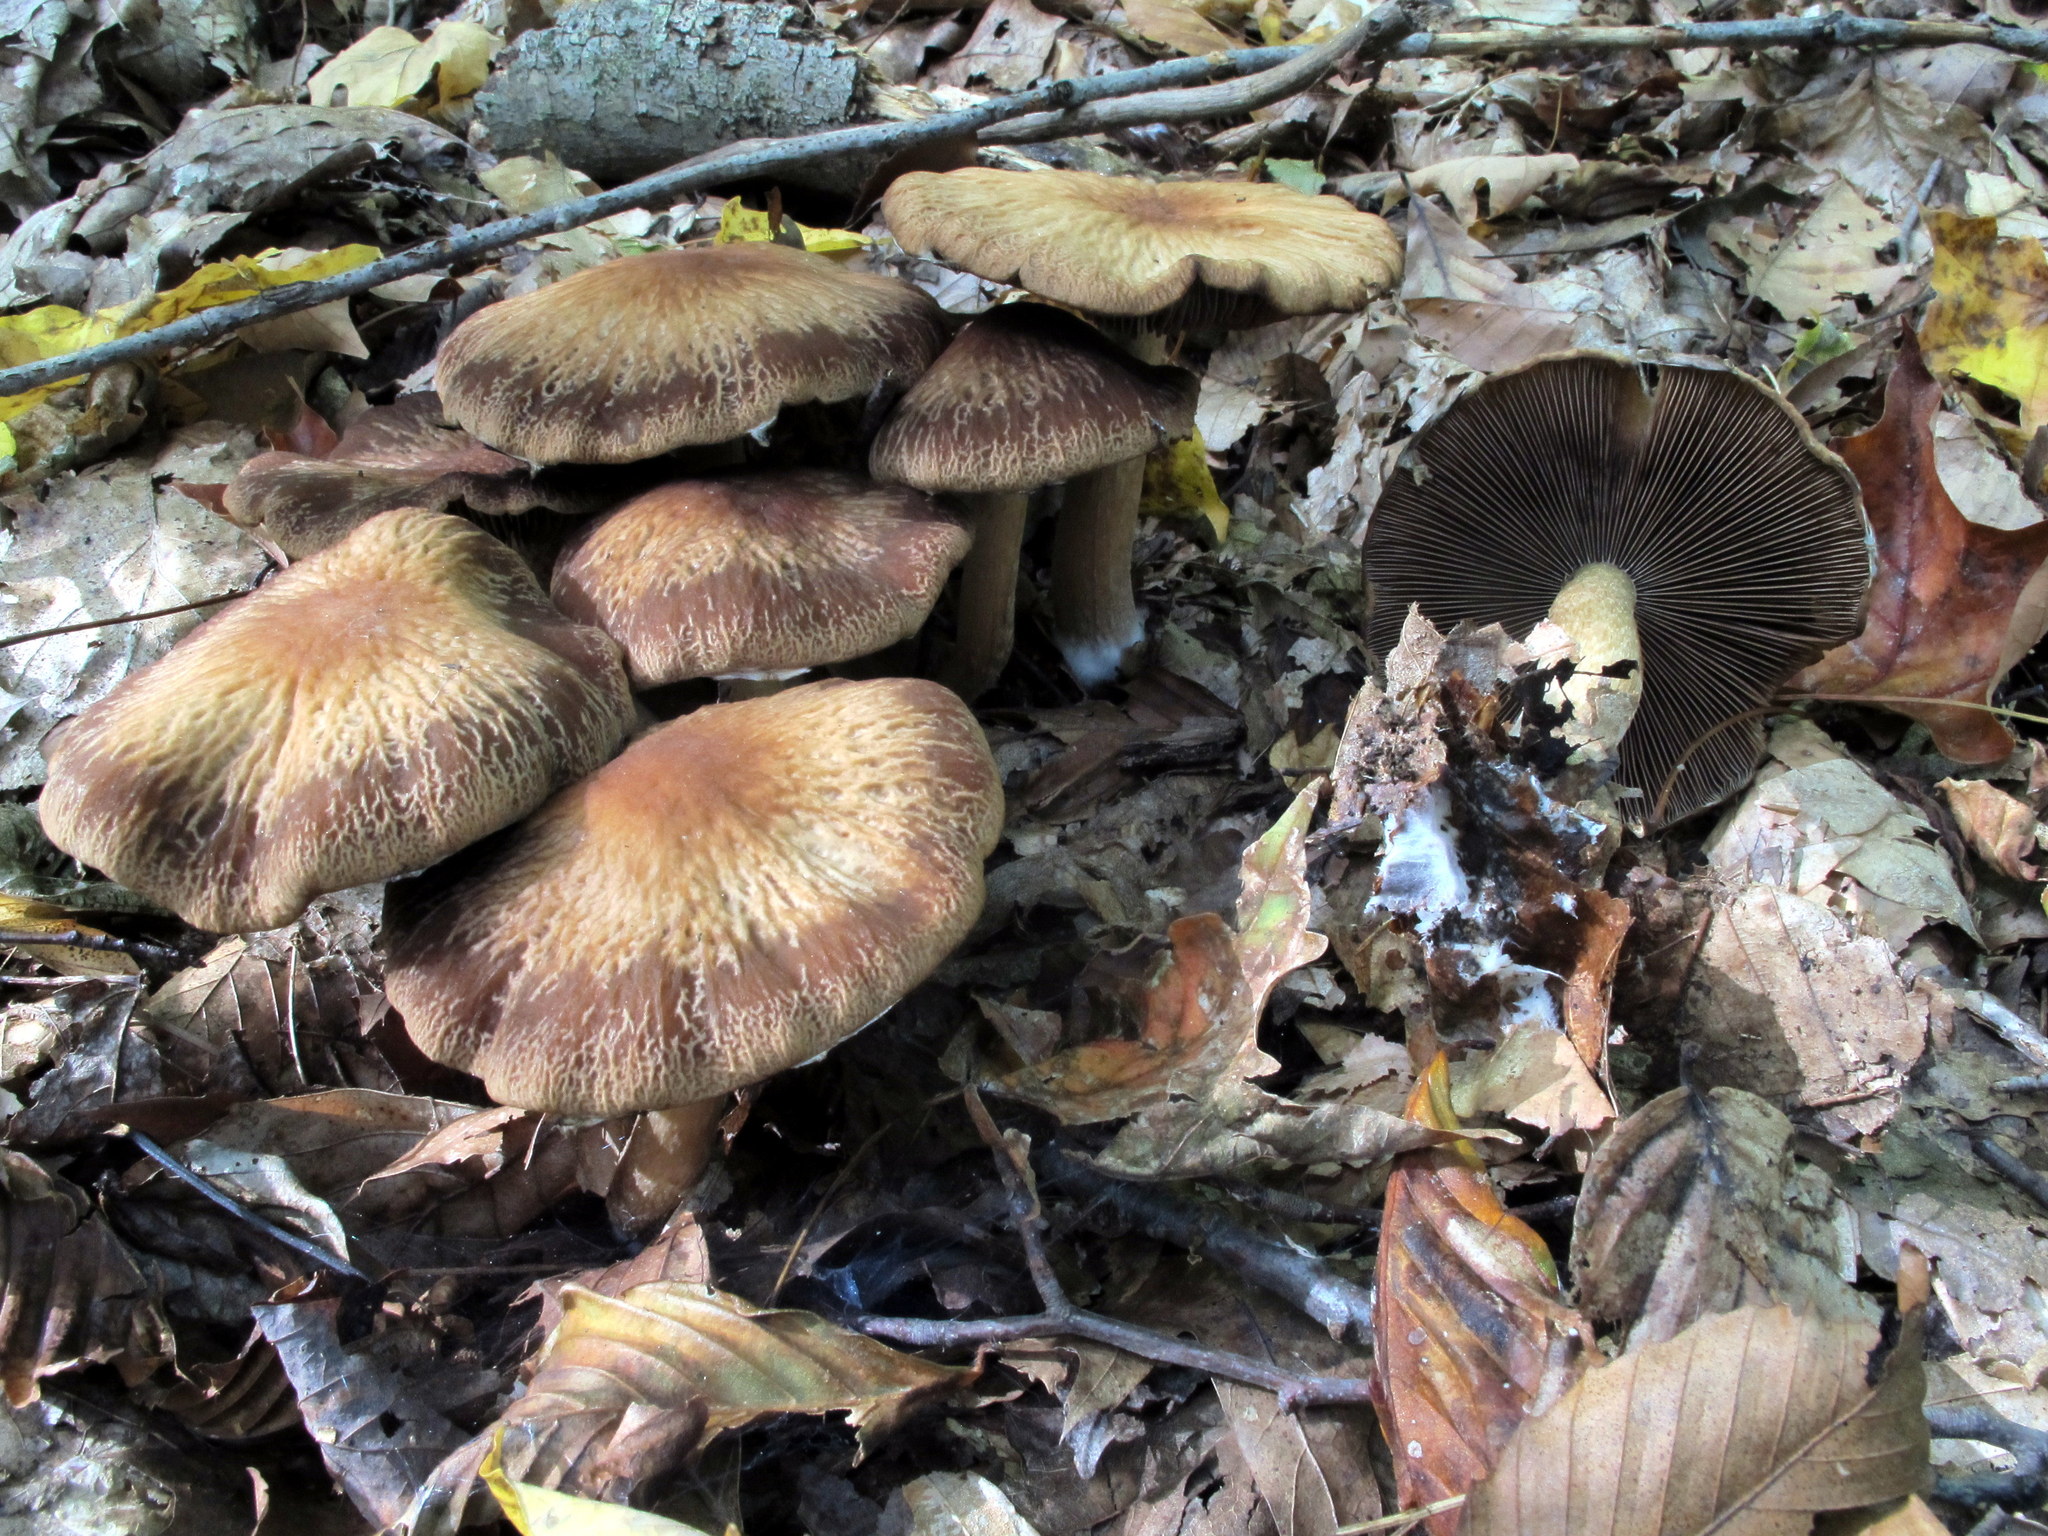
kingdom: Fungi
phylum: Basidiomycota
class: Agaricomycetes
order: Agaricales
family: Psathyrellaceae
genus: Typhrasa
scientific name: Typhrasa gossypina
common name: Wrinkled psathyrella
